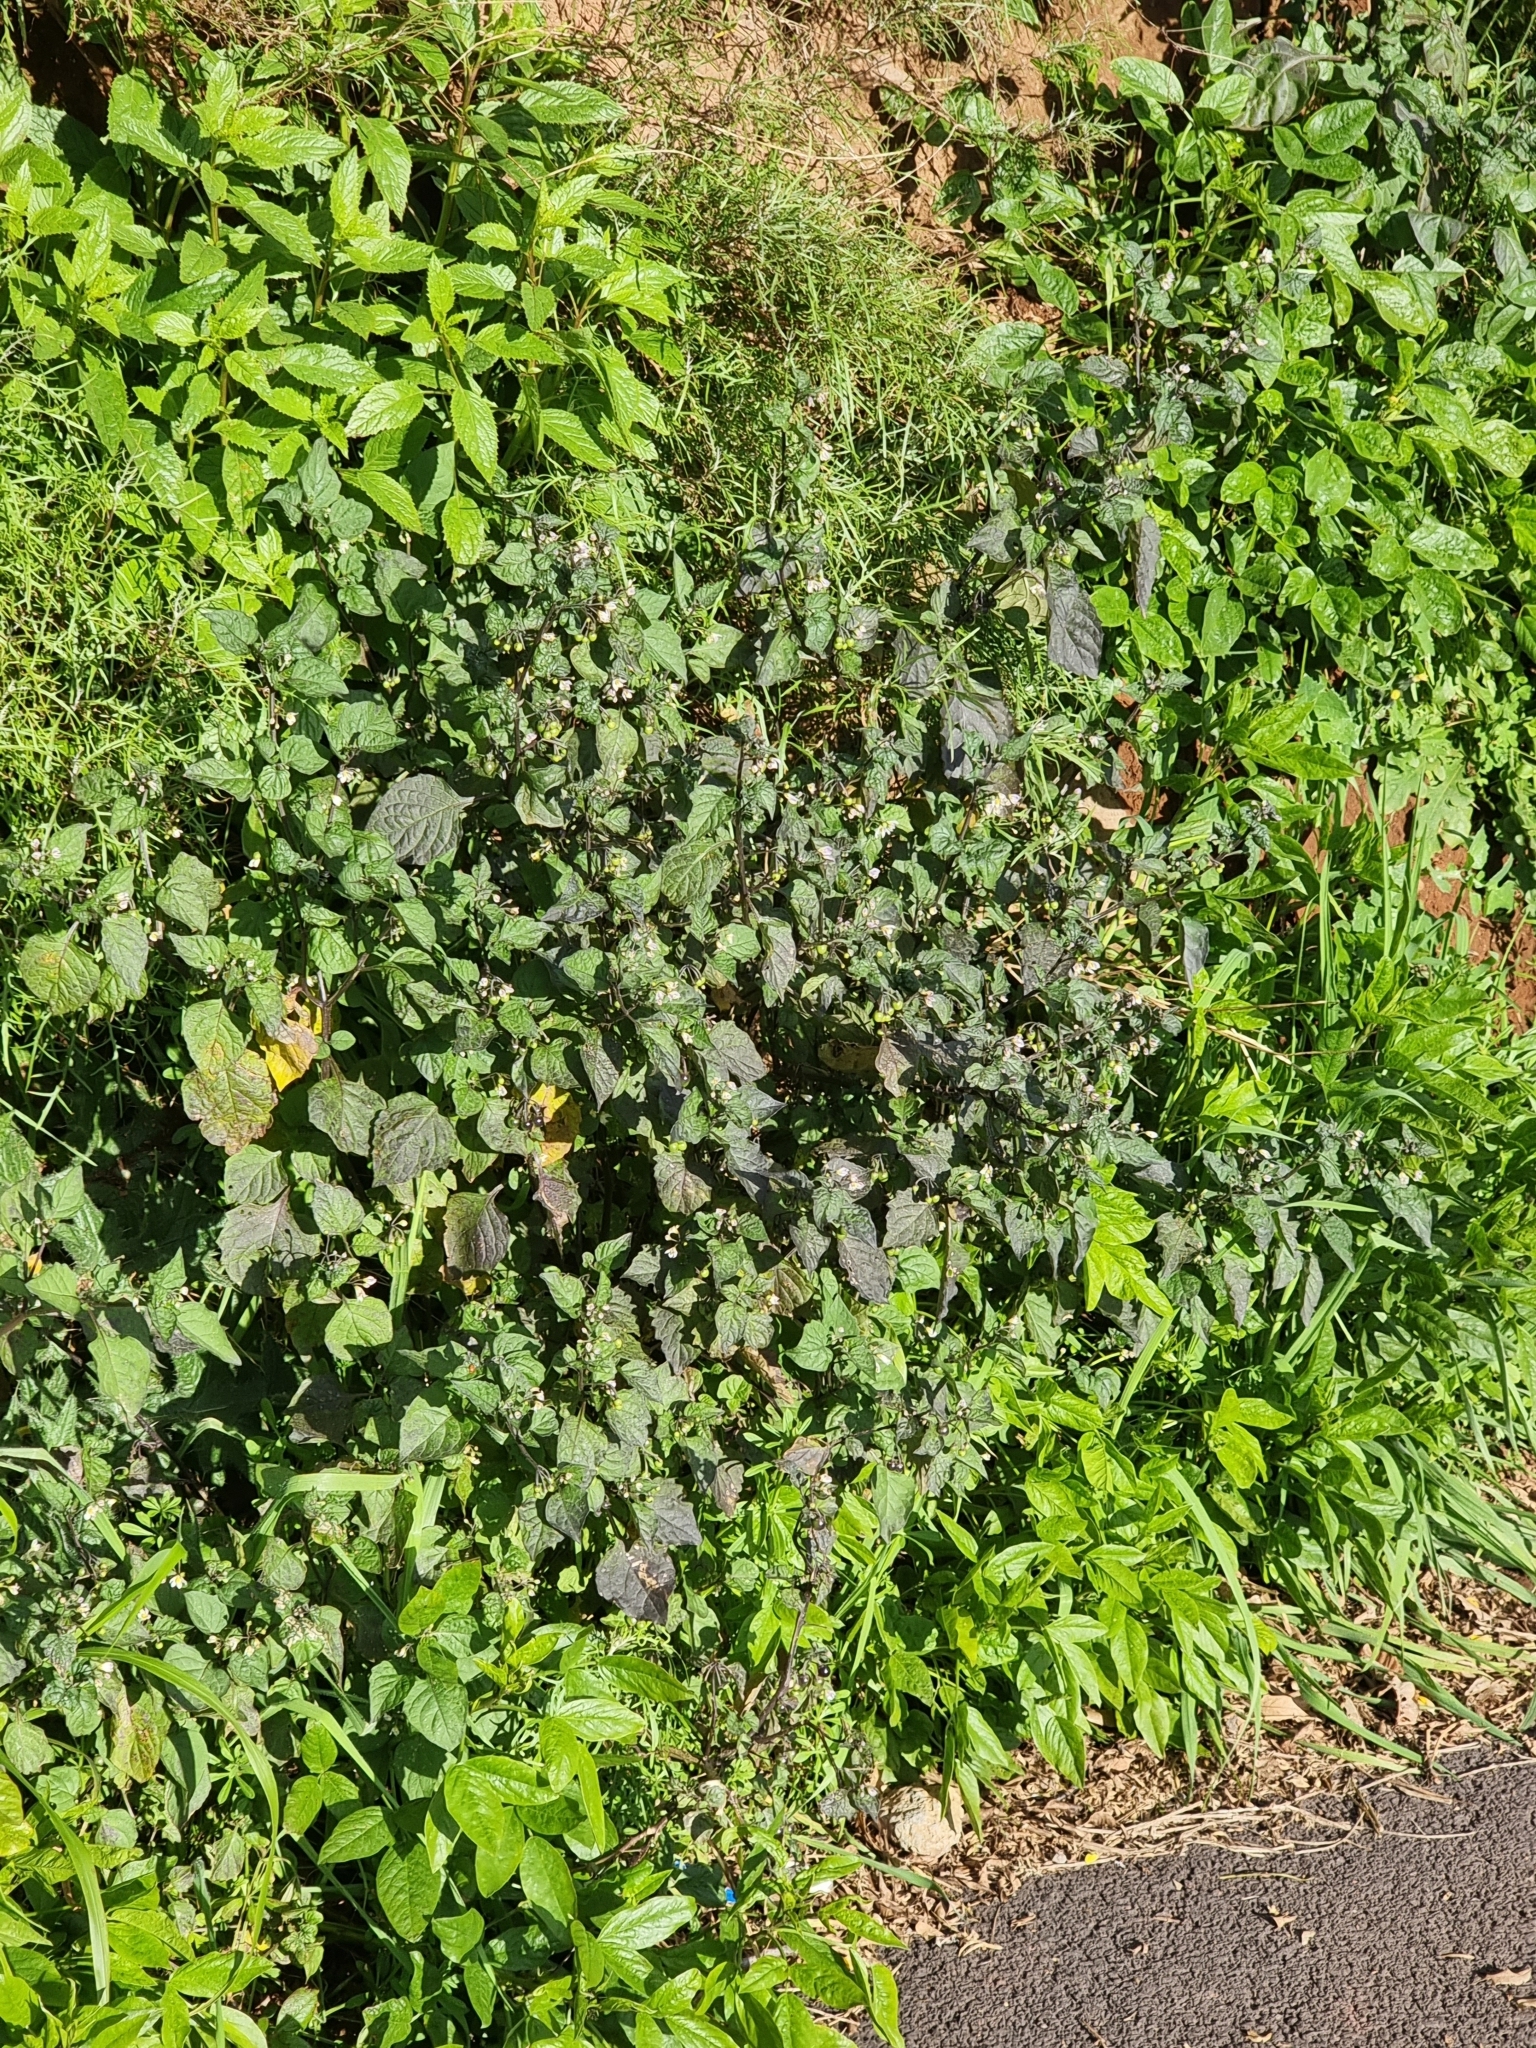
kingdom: Plantae
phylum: Tracheophyta
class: Magnoliopsida
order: Solanales
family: Solanaceae
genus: Solanum
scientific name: Solanum nigrum
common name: Black nightshade
